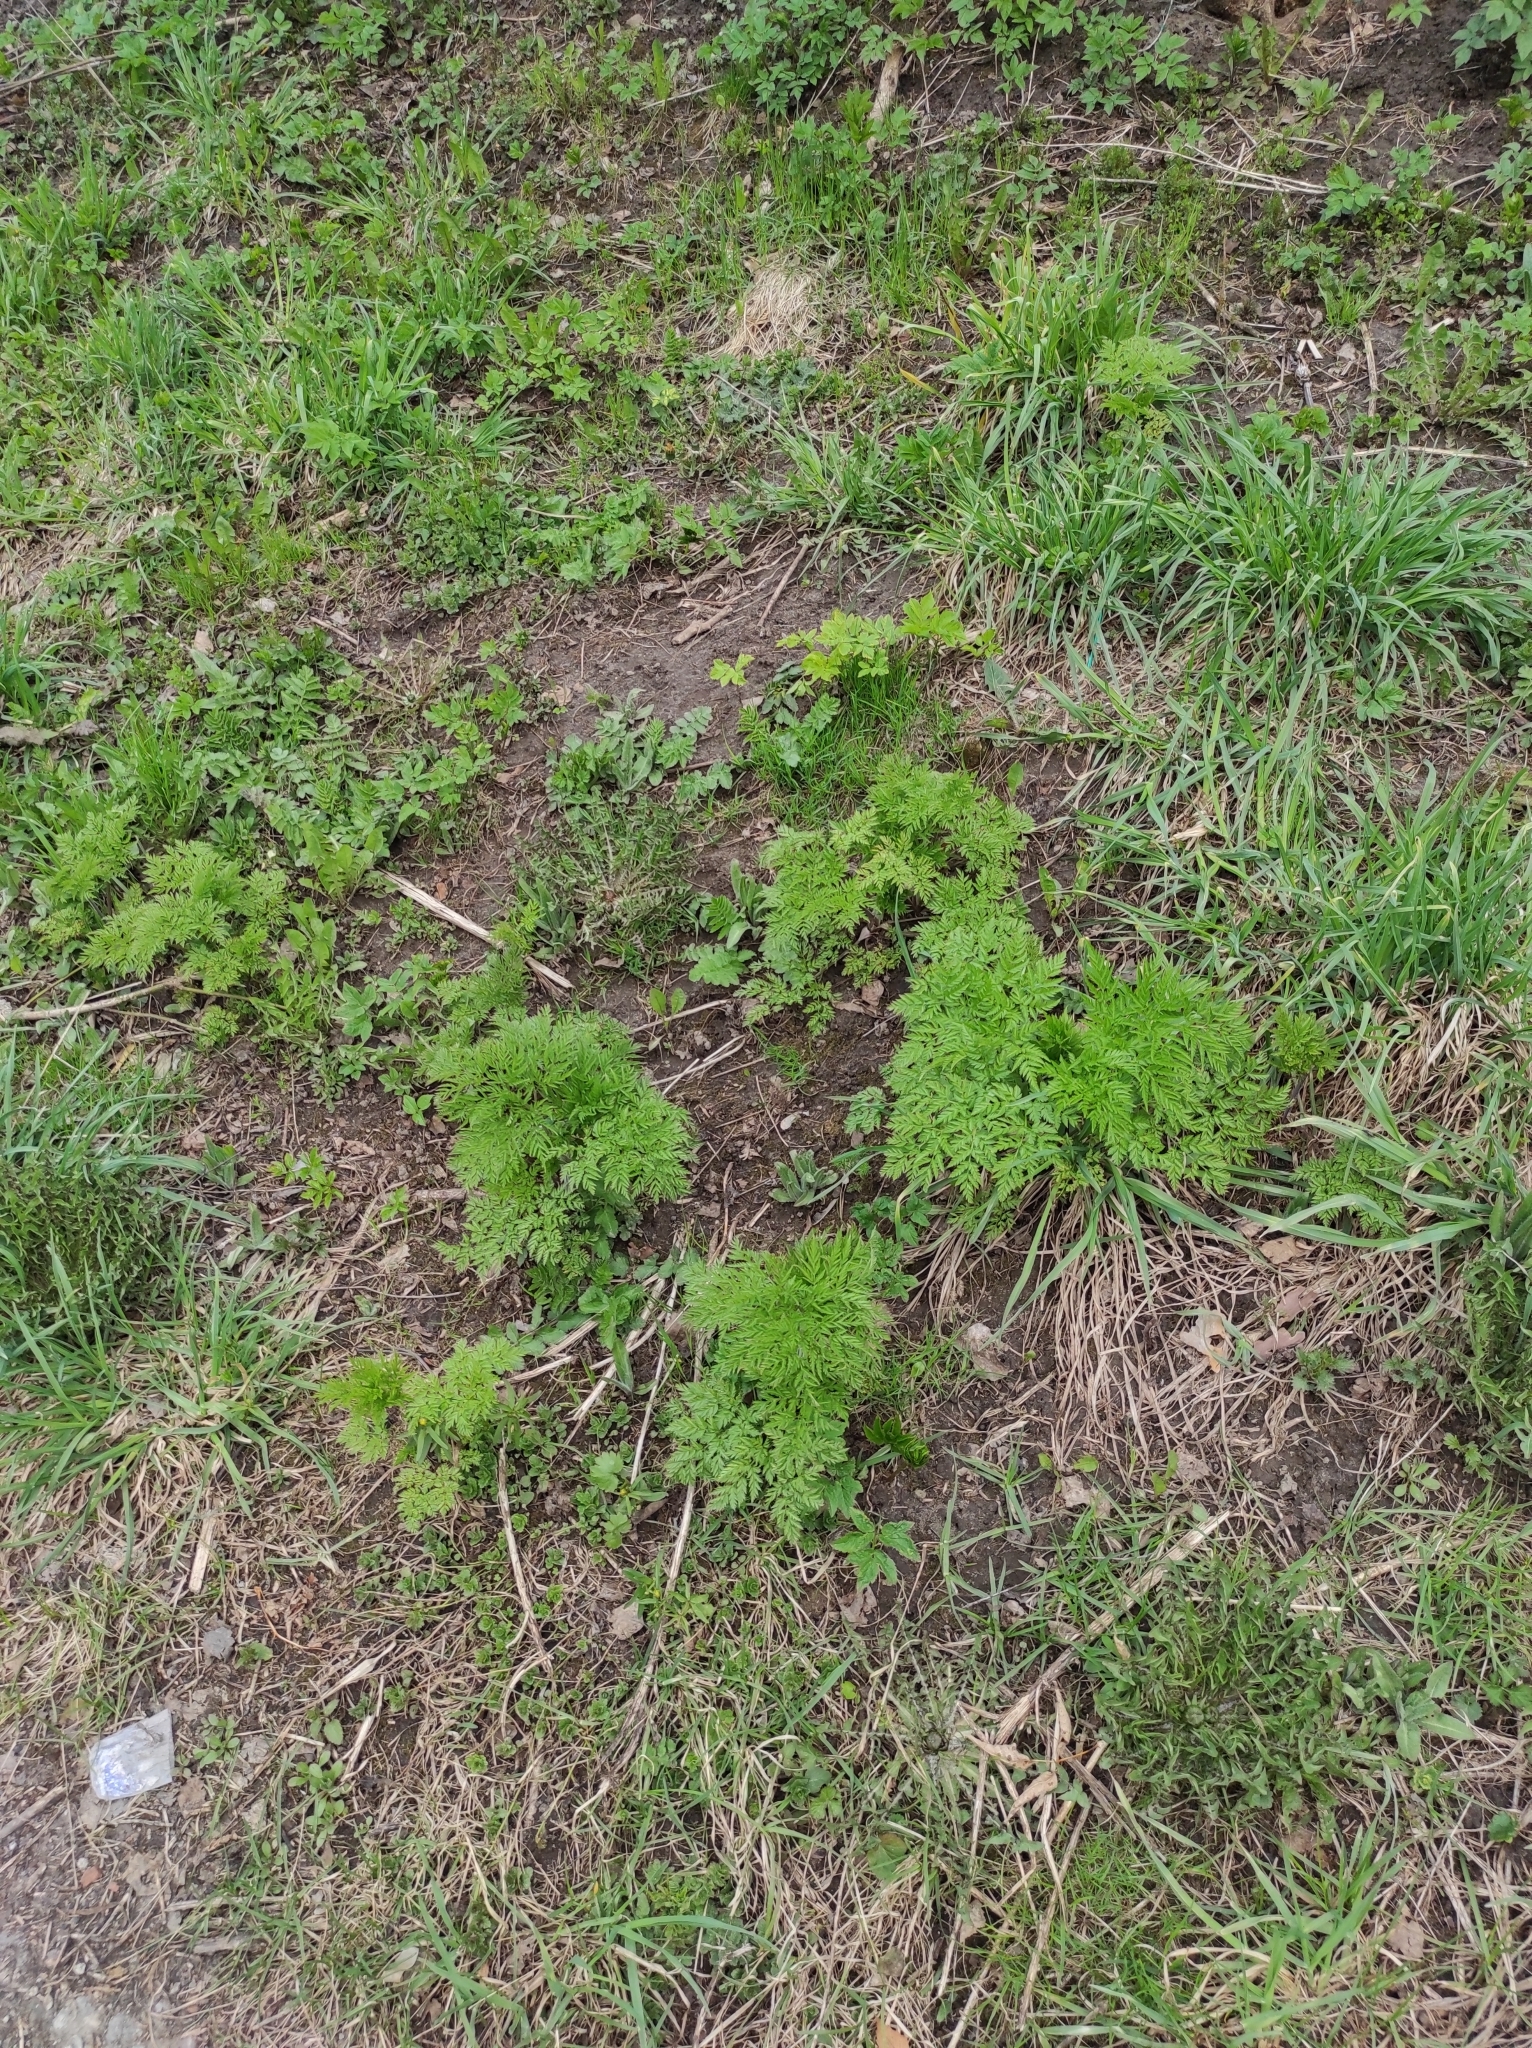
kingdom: Plantae
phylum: Tracheophyta
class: Magnoliopsida
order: Apiales
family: Apiaceae
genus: Anthriscus
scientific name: Anthriscus sylvestris
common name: Cow parsley
